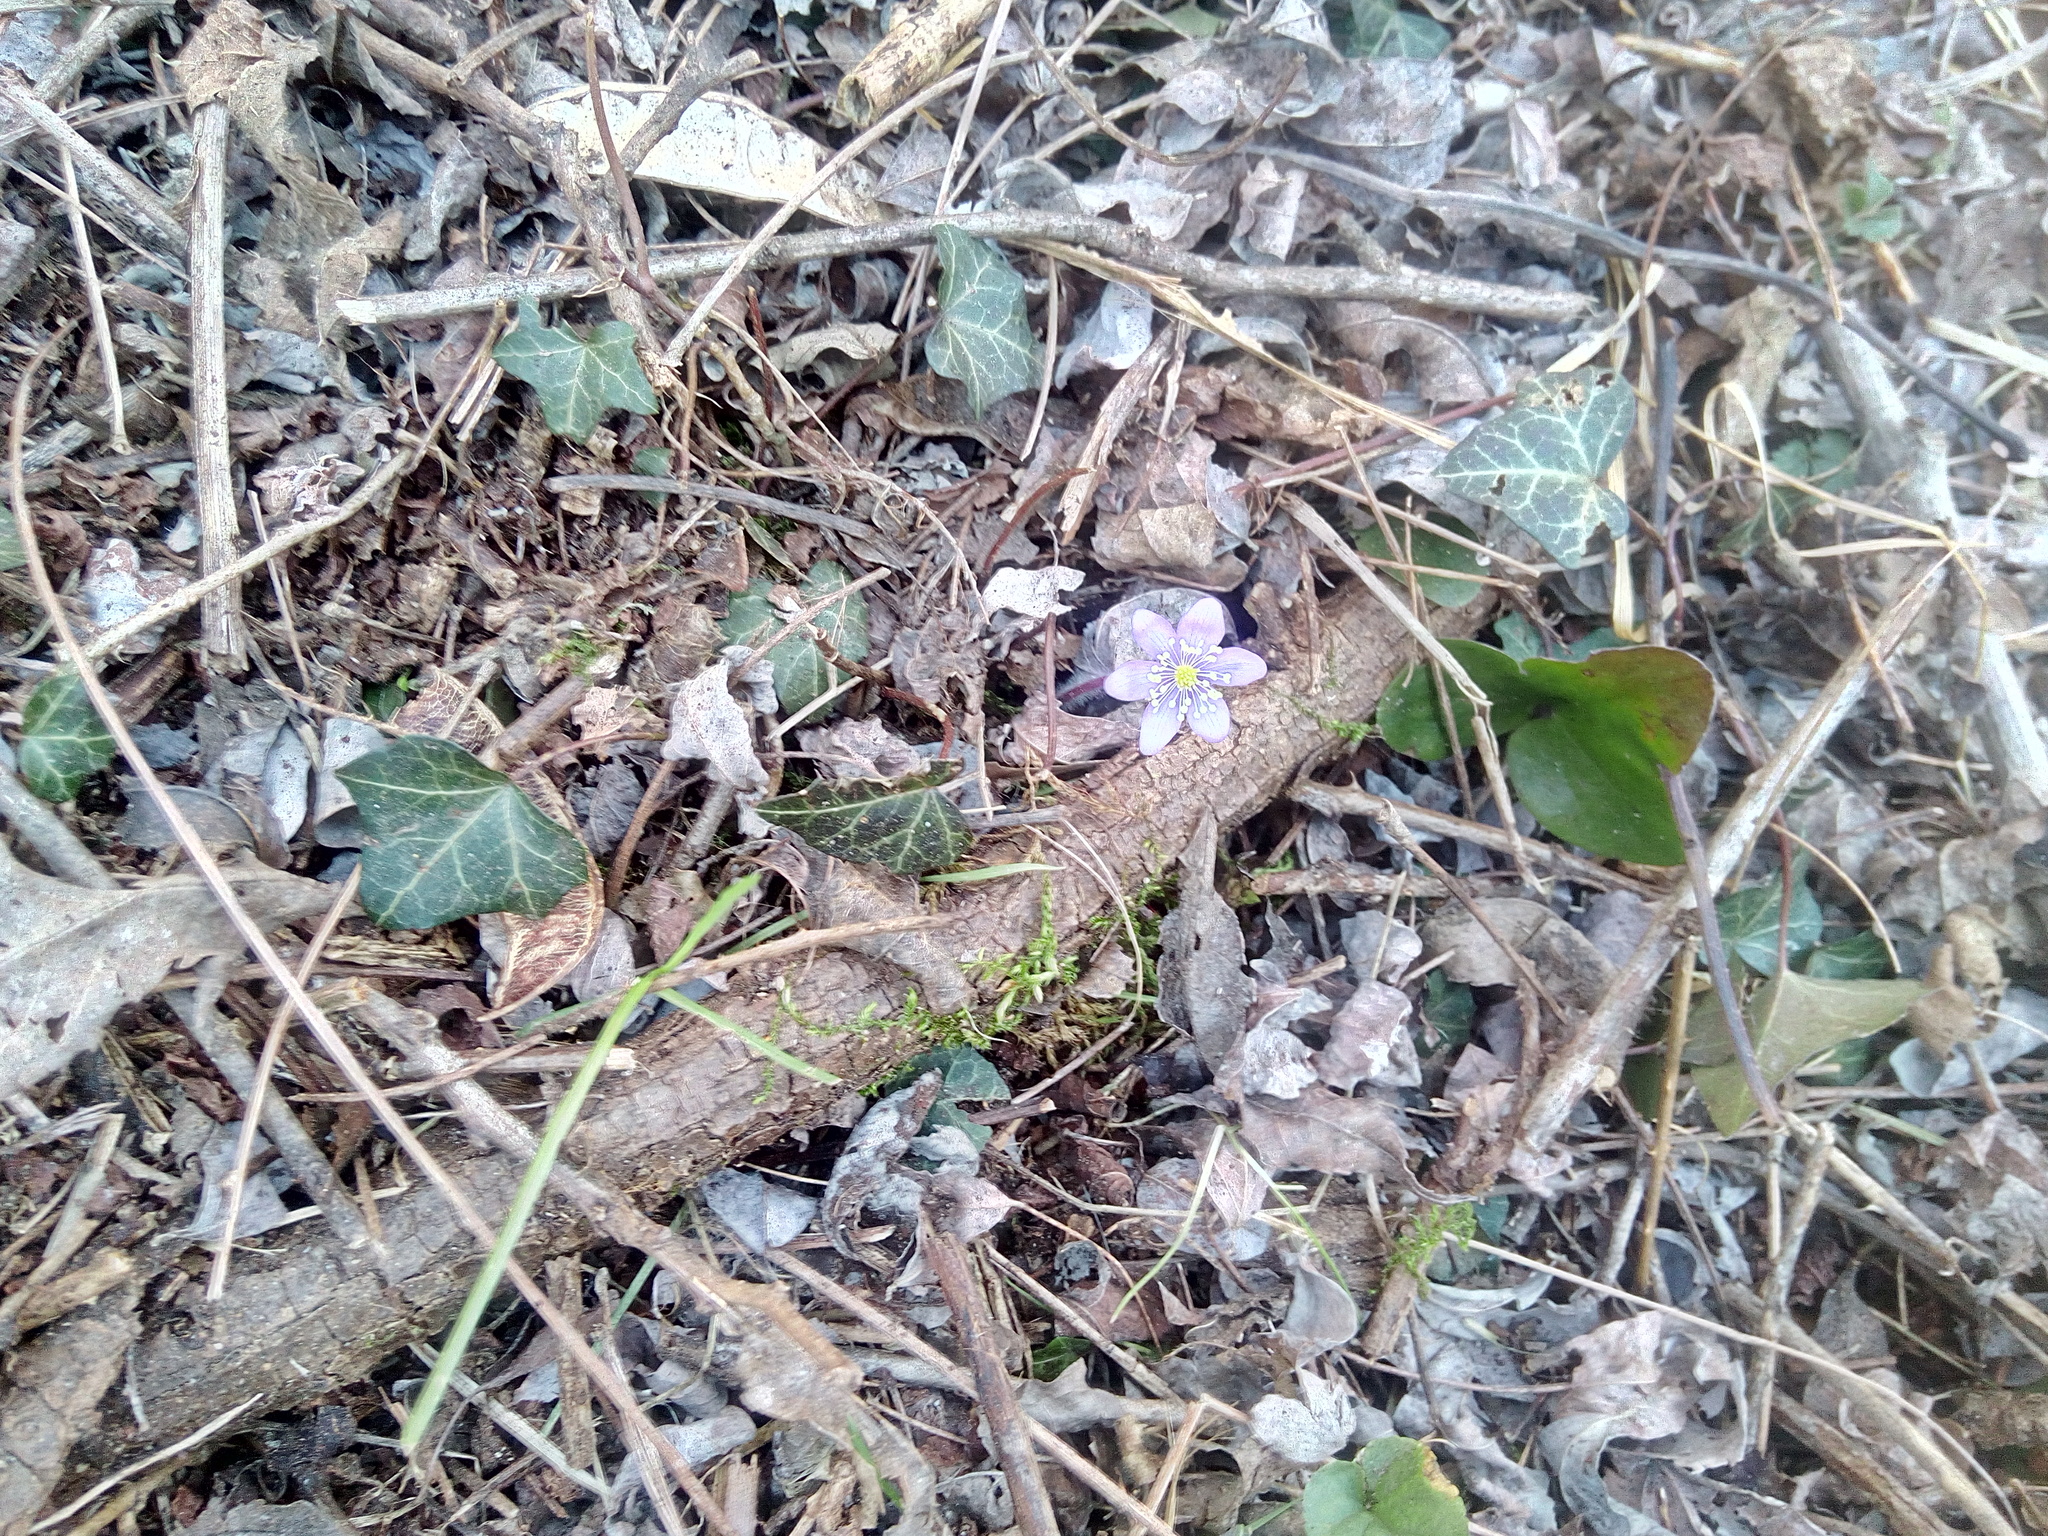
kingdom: Plantae
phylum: Tracheophyta
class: Magnoliopsida
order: Ranunculales
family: Ranunculaceae
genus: Hepatica
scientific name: Hepatica nobilis
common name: Liverleaf
